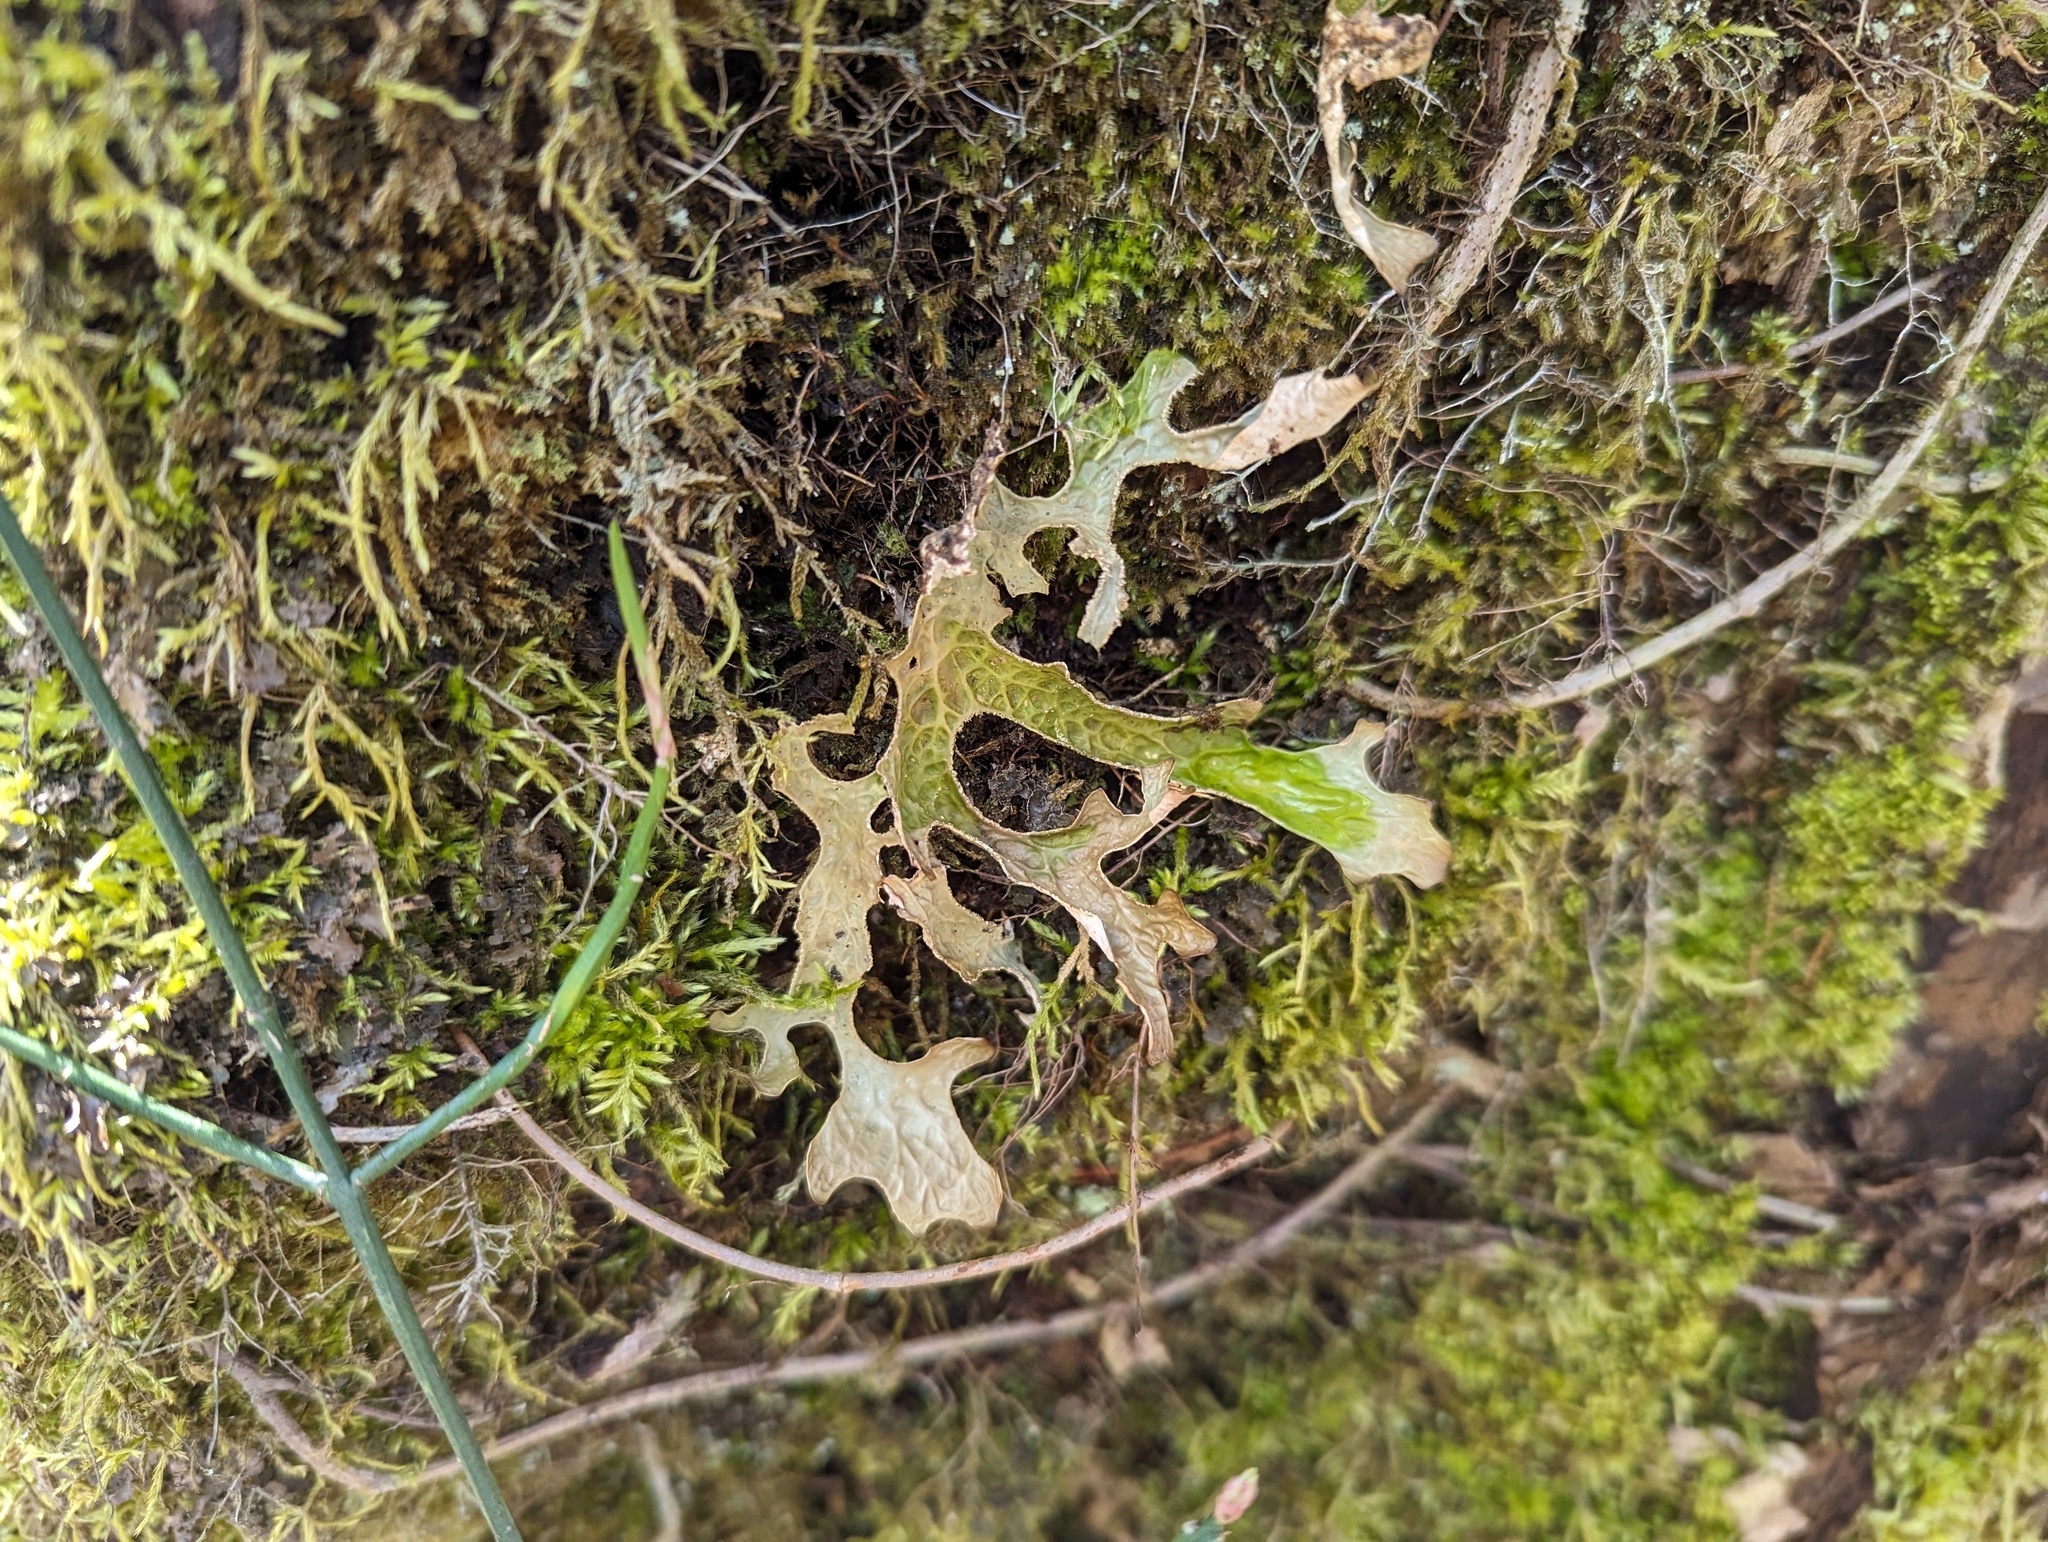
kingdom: Fungi
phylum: Ascomycota
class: Lecanoromycetes
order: Peltigerales
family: Lobariaceae
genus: Lobaria
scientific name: Lobaria pulmonaria
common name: Lungwort
